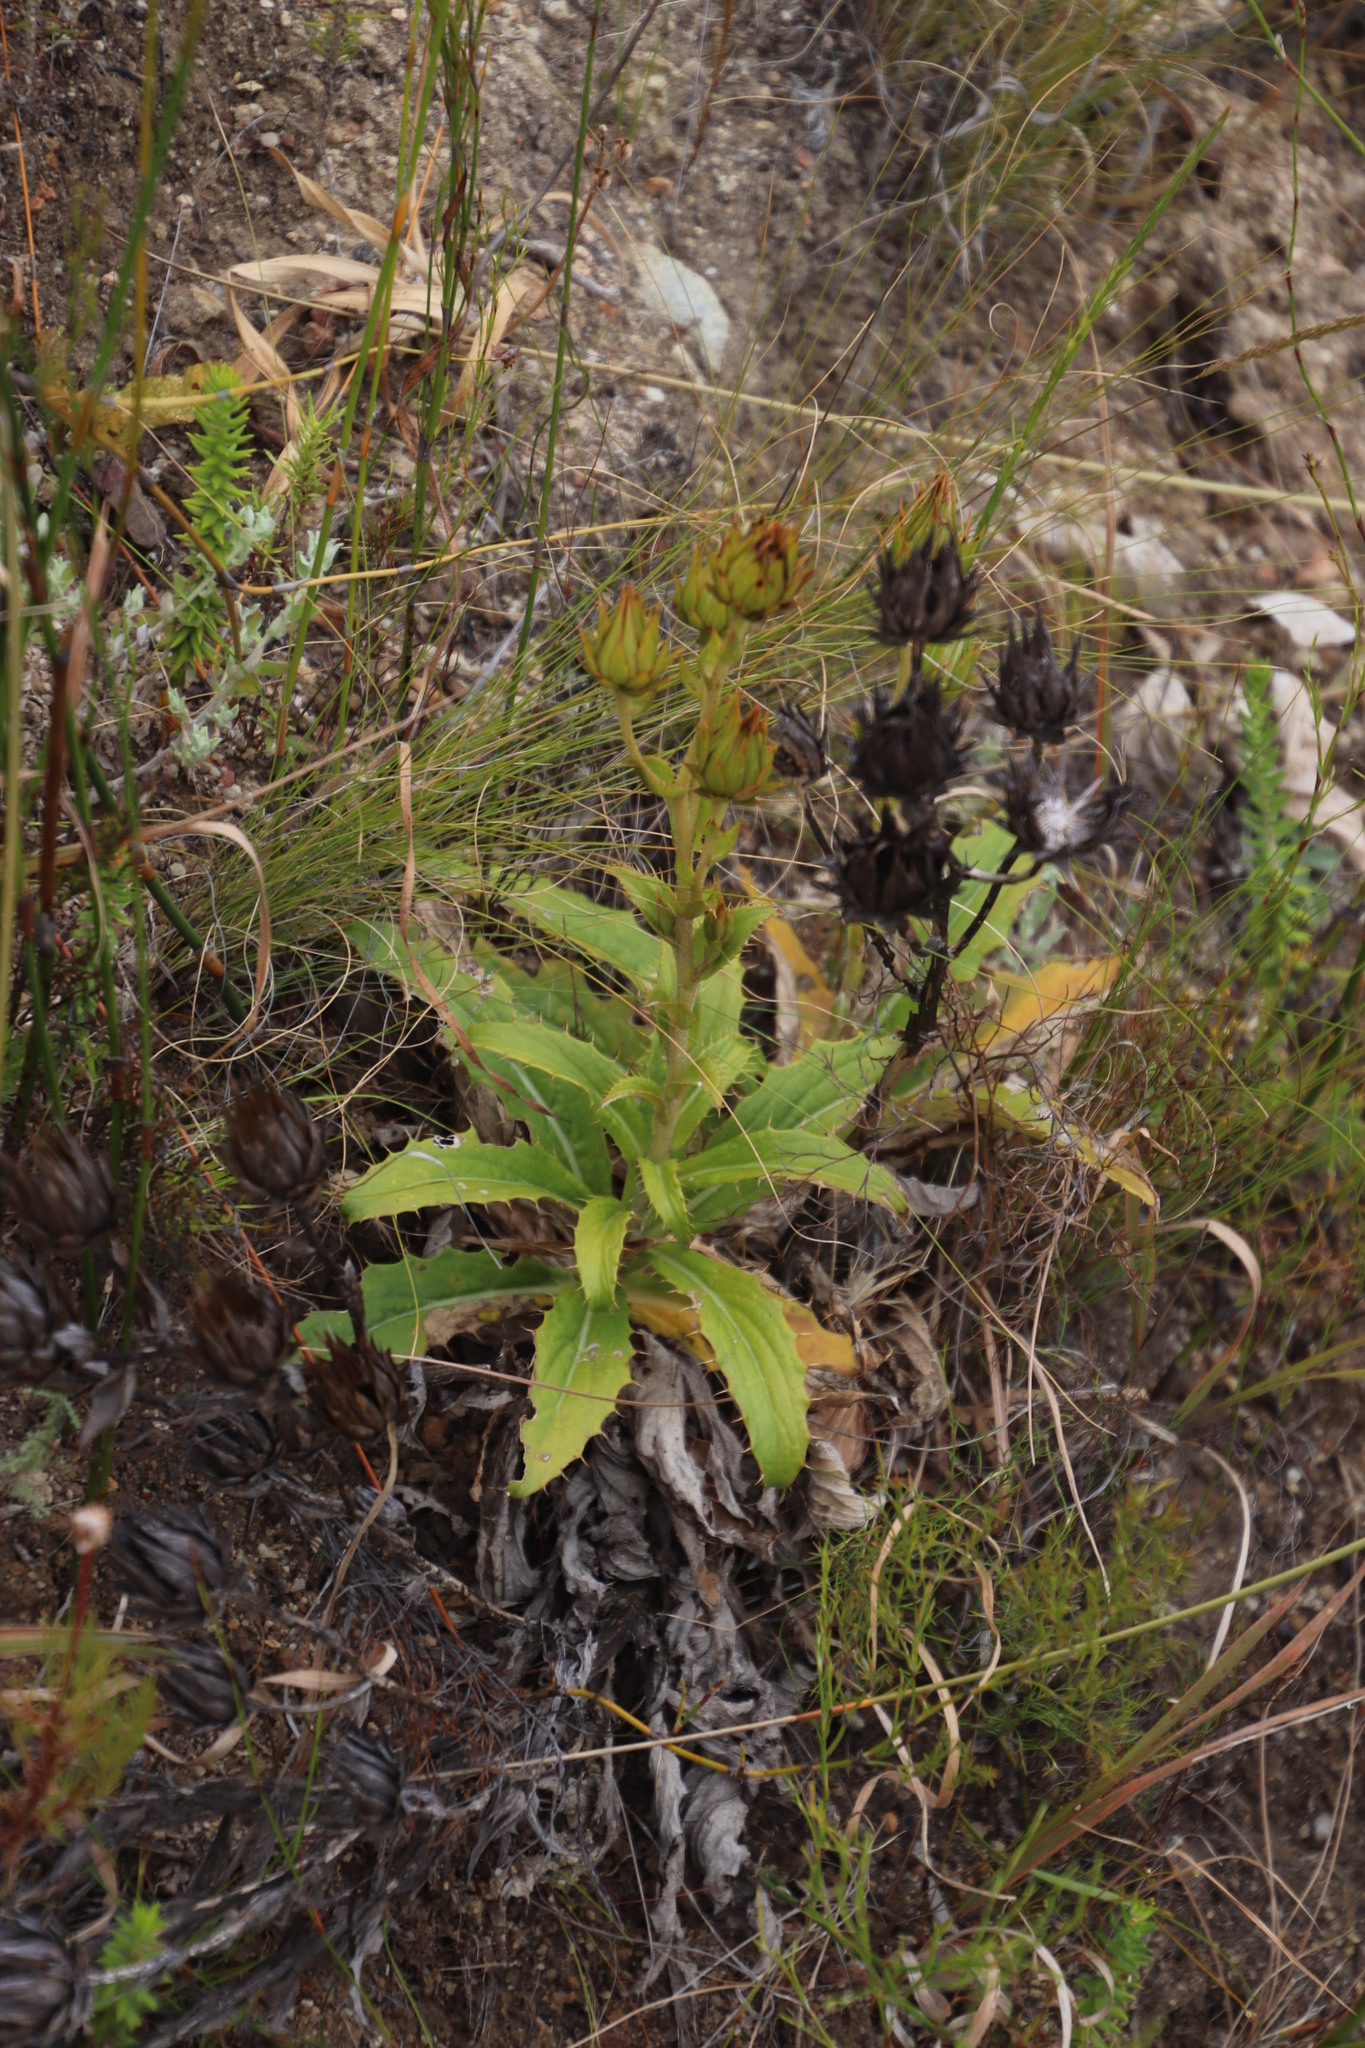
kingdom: Plantae
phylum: Tracheophyta
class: Magnoliopsida
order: Asterales
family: Asteraceae
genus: Berkheya
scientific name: Berkheya herbacea
